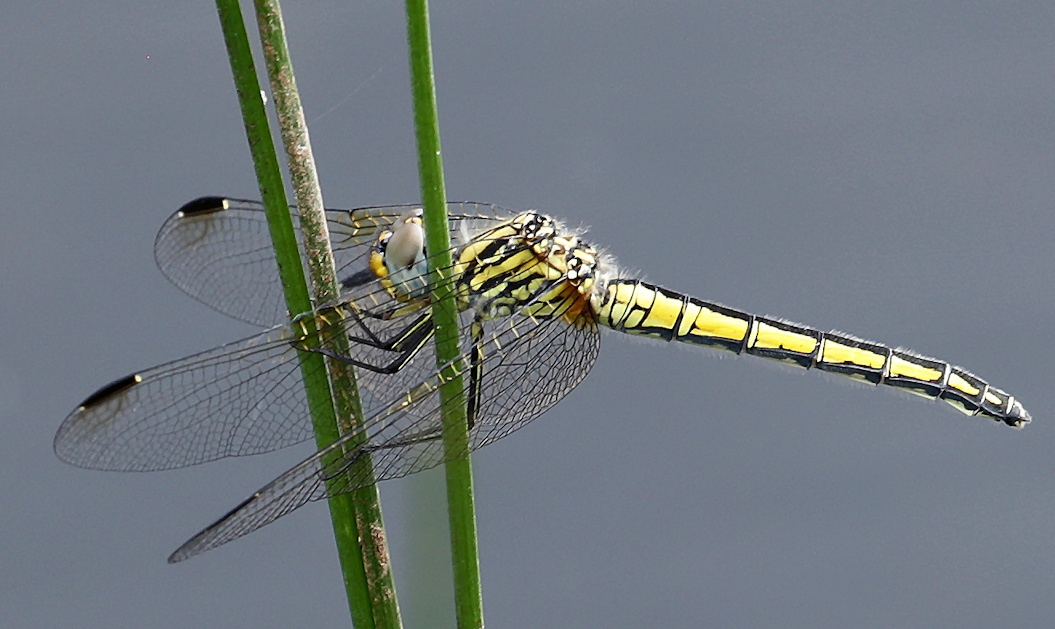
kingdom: Animalia
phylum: Arthropoda
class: Insecta
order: Odonata
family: Libellulidae
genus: Trithemis
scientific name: Trithemis dorsalis
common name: Highland dropwing
